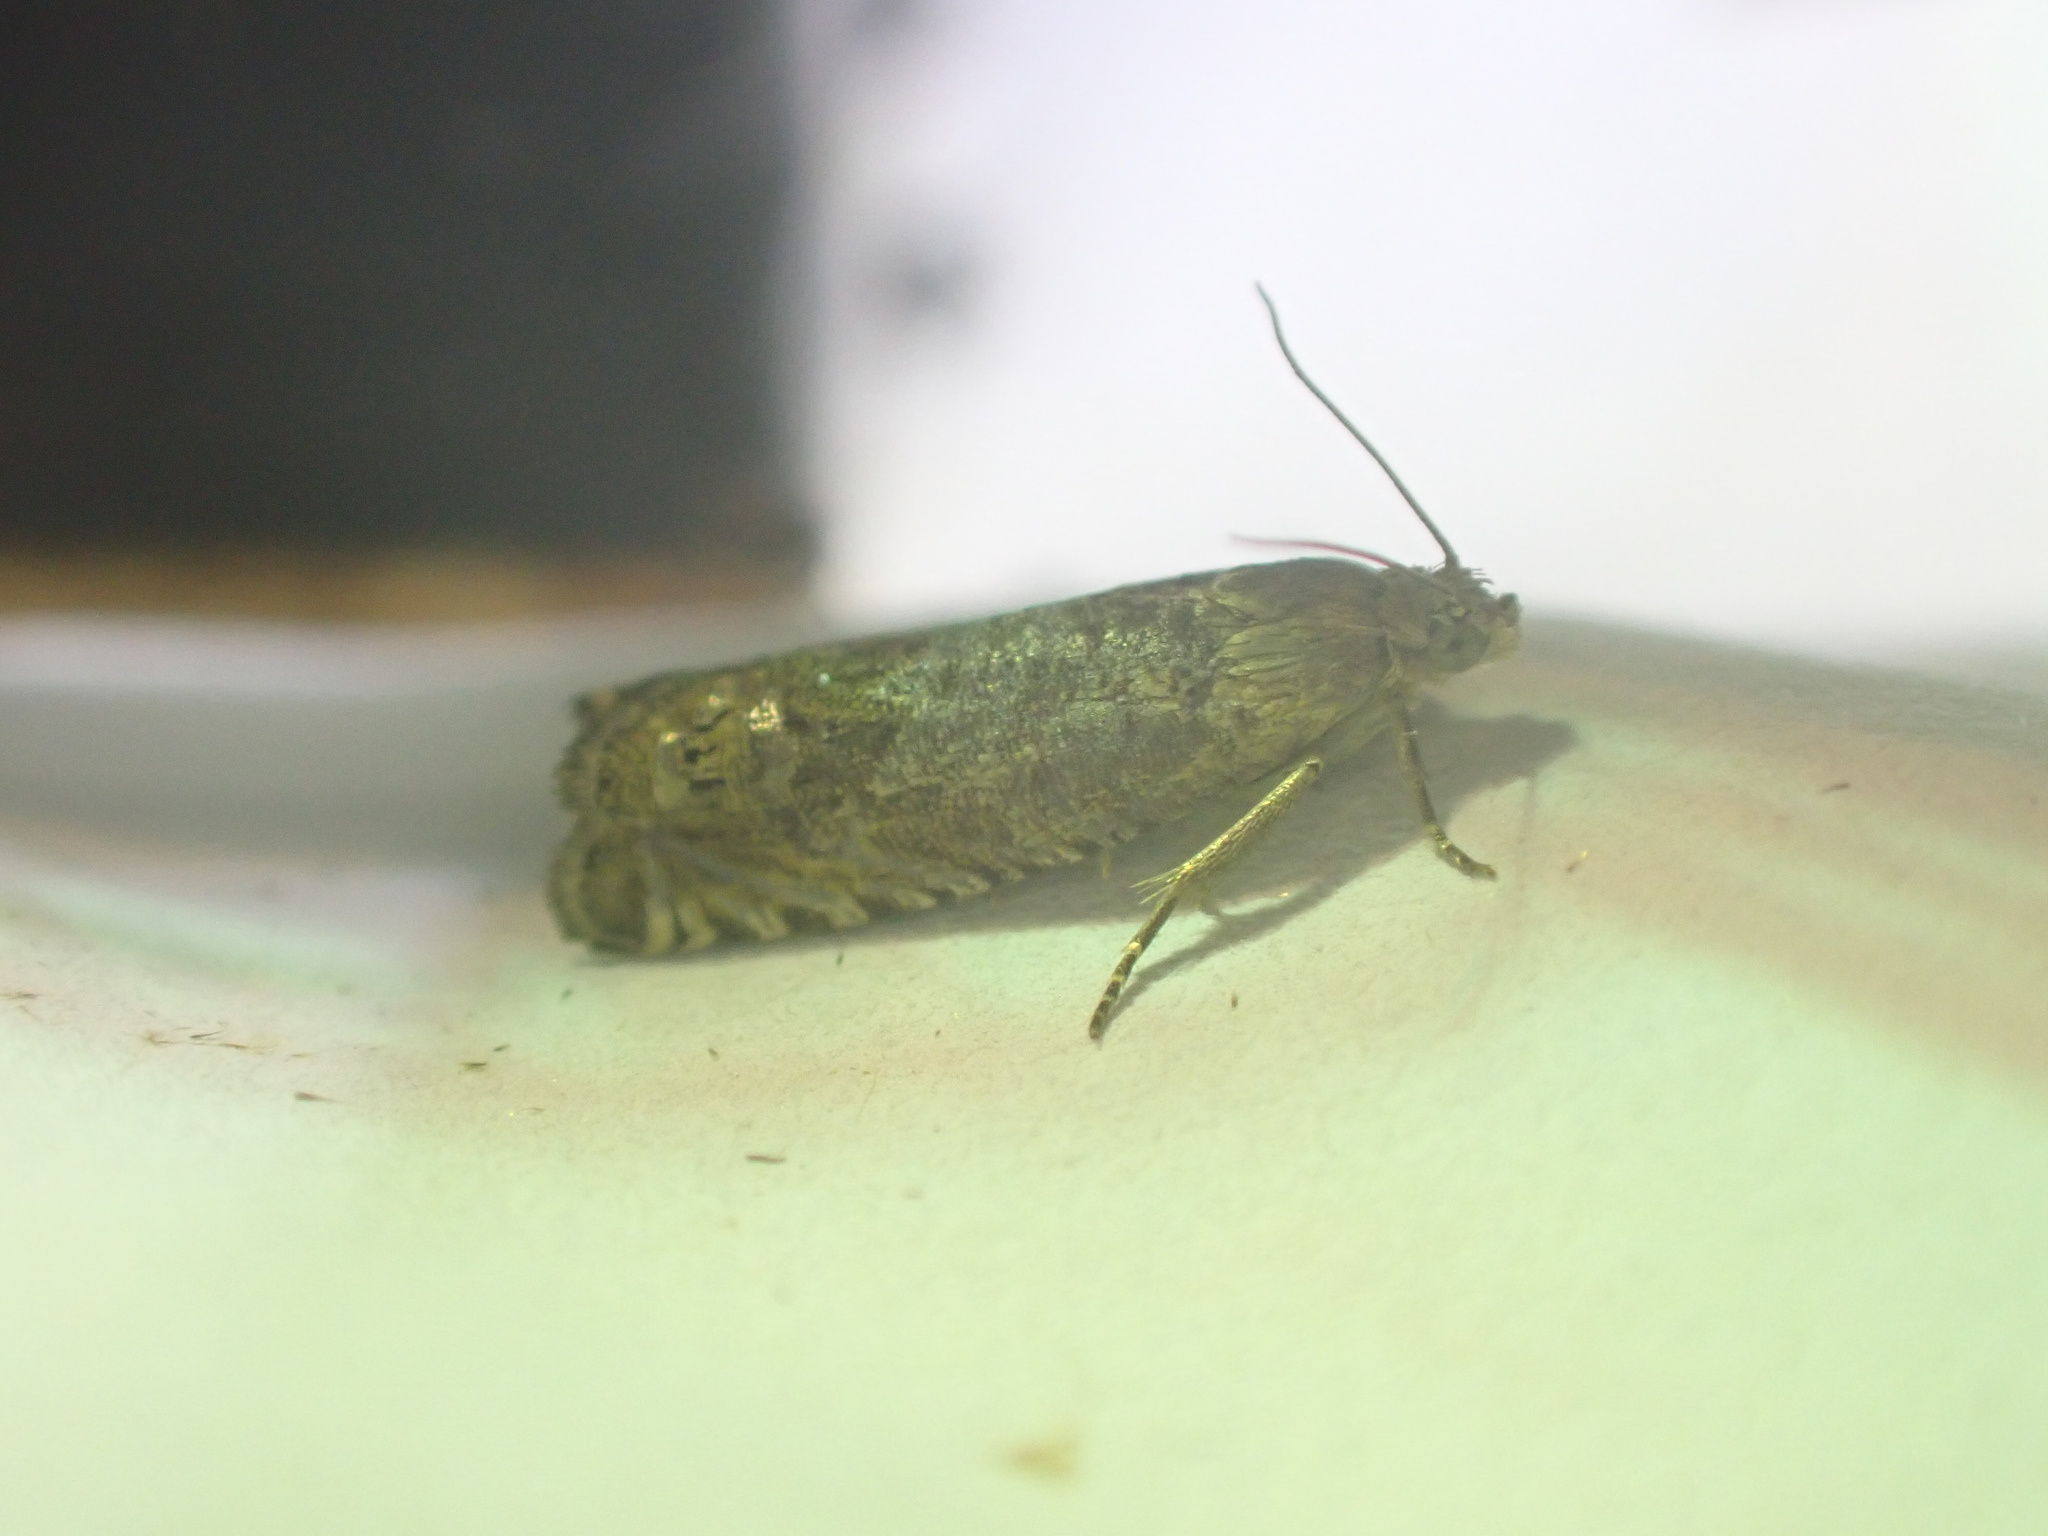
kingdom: Animalia
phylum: Arthropoda
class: Insecta
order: Lepidoptera
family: Tortricidae
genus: Cydia
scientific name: Cydia succedana
